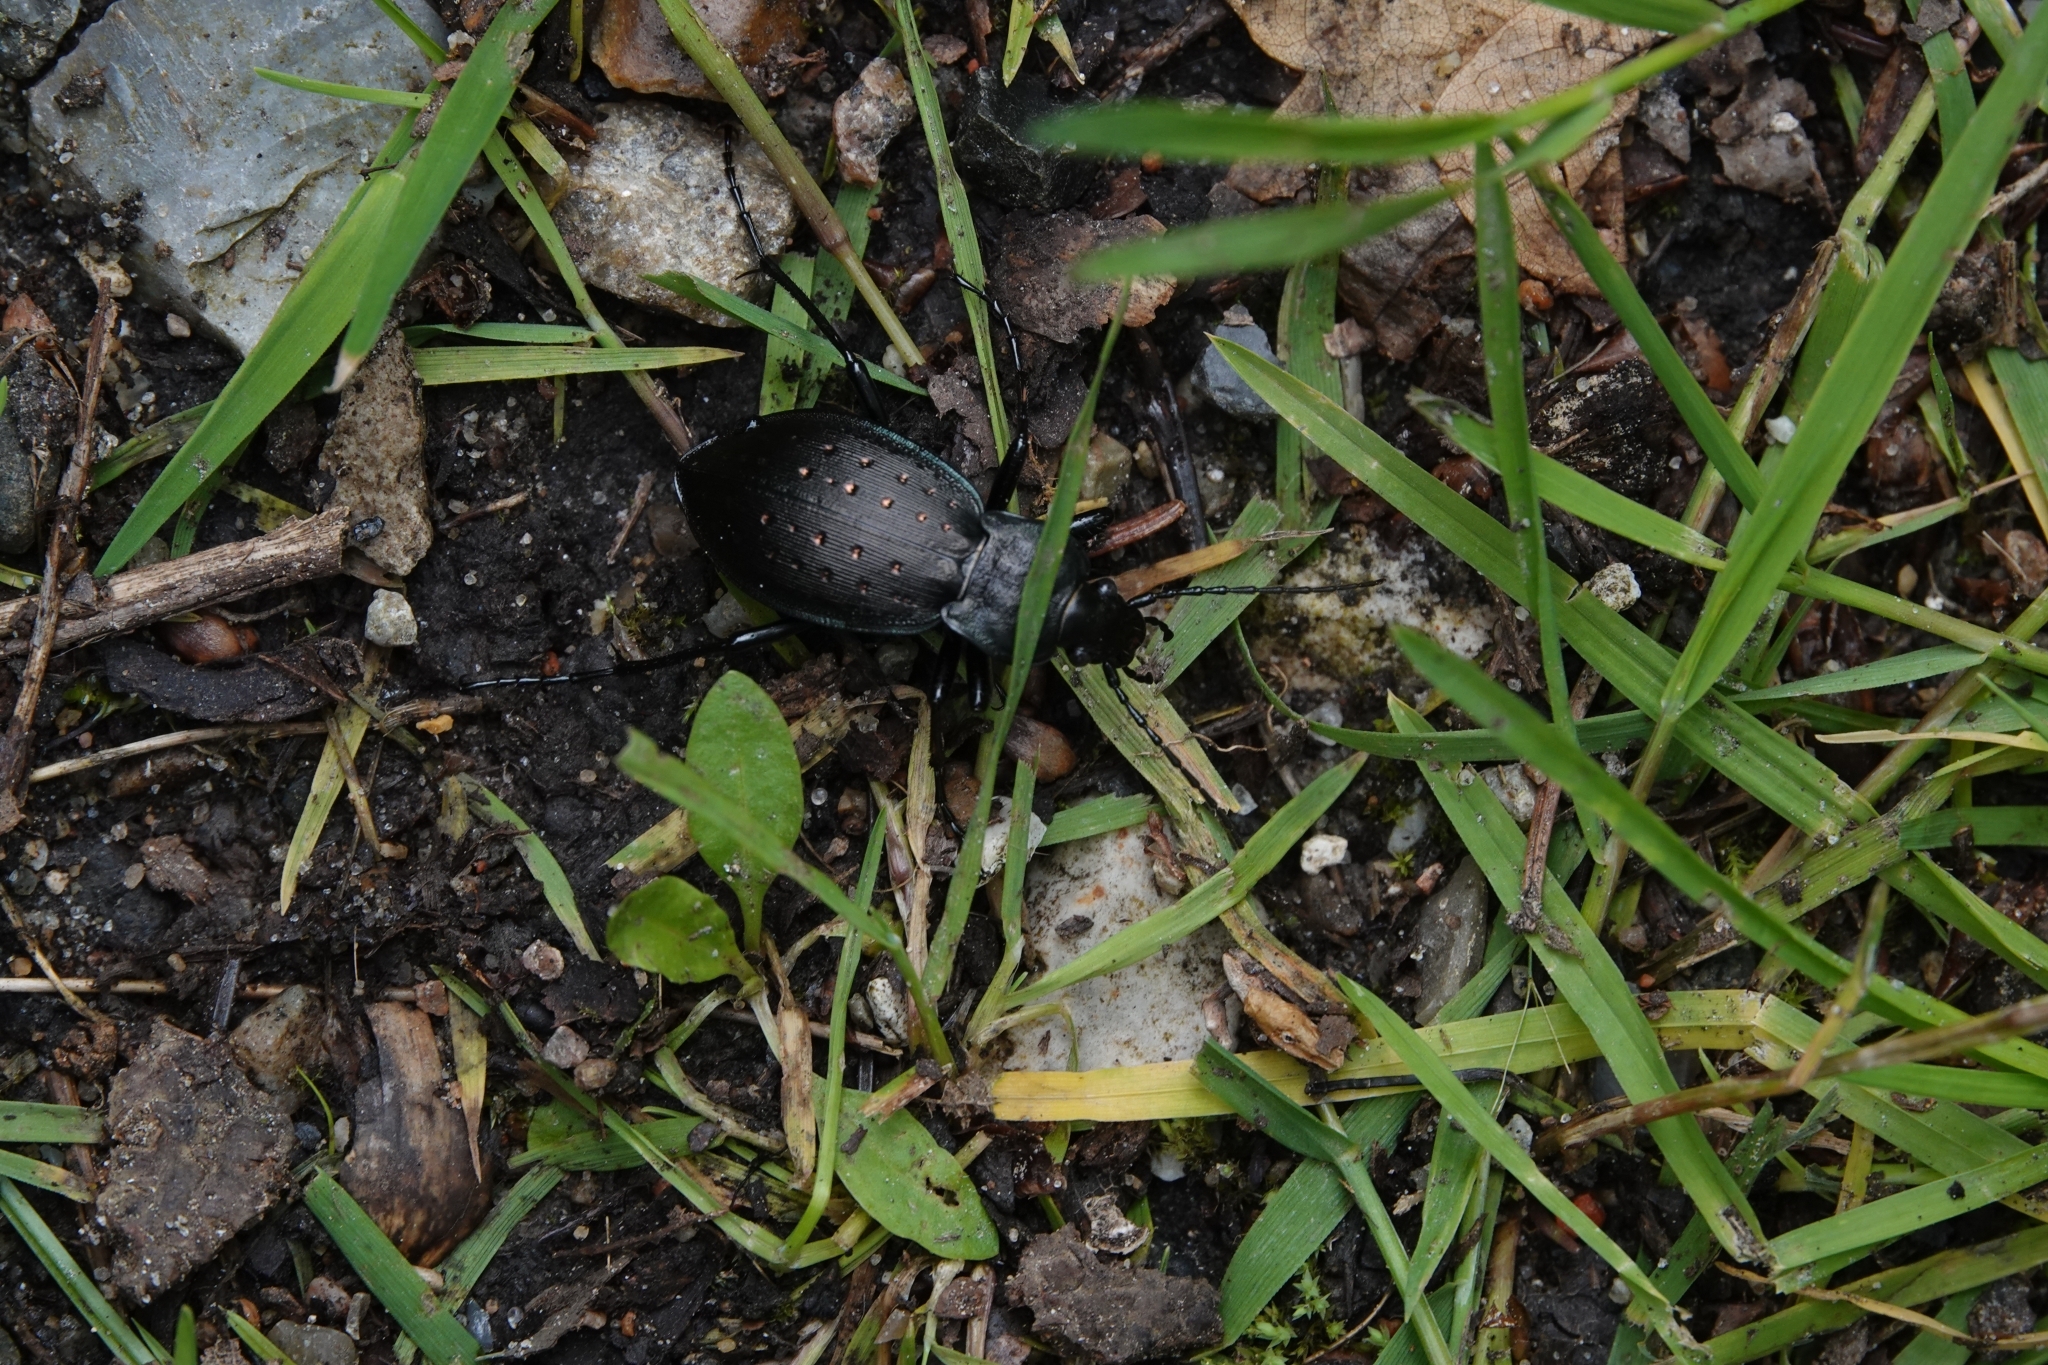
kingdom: Animalia
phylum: Arthropoda
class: Insecta
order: Coleoptera
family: Carabidae
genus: Carabus
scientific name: Carabus hortensis
